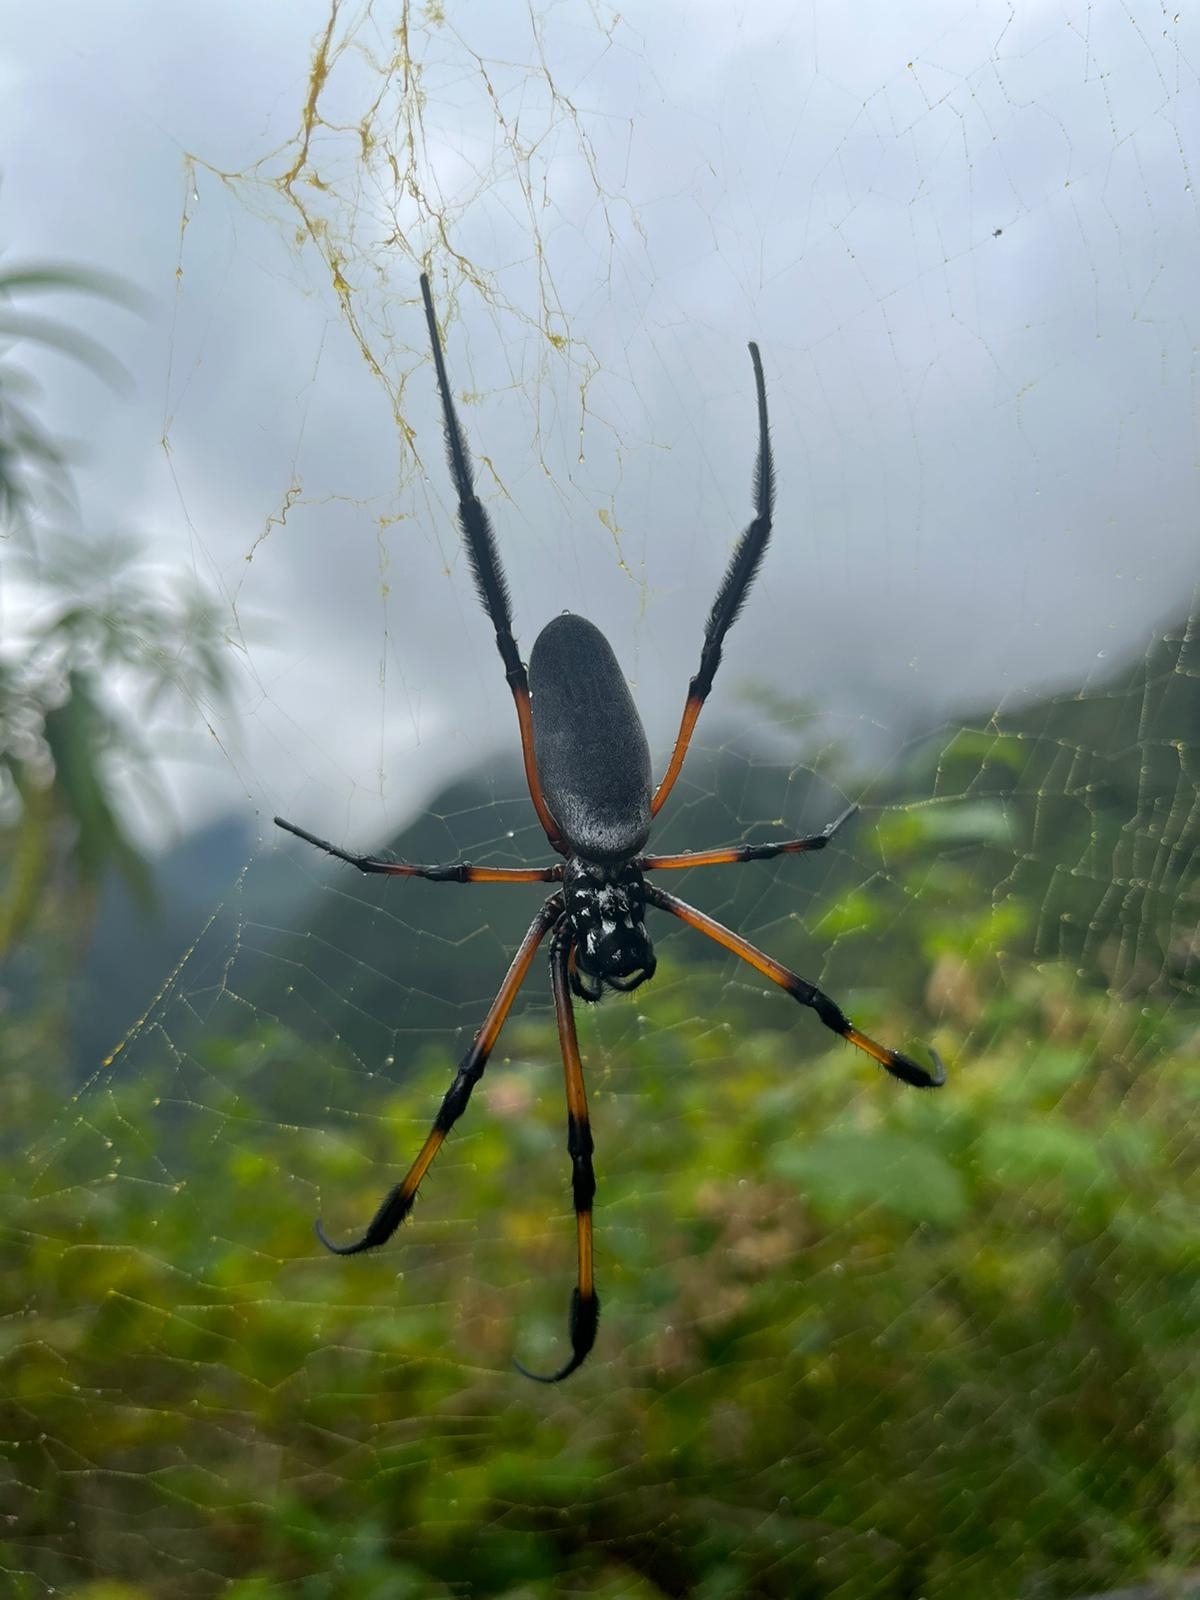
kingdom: Animalia
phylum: Arthropoda
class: Arachnida
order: Araneae
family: Araneidae
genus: Trichonephila
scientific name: Trichonephila inaurata
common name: Red-legged golden orb weaver
